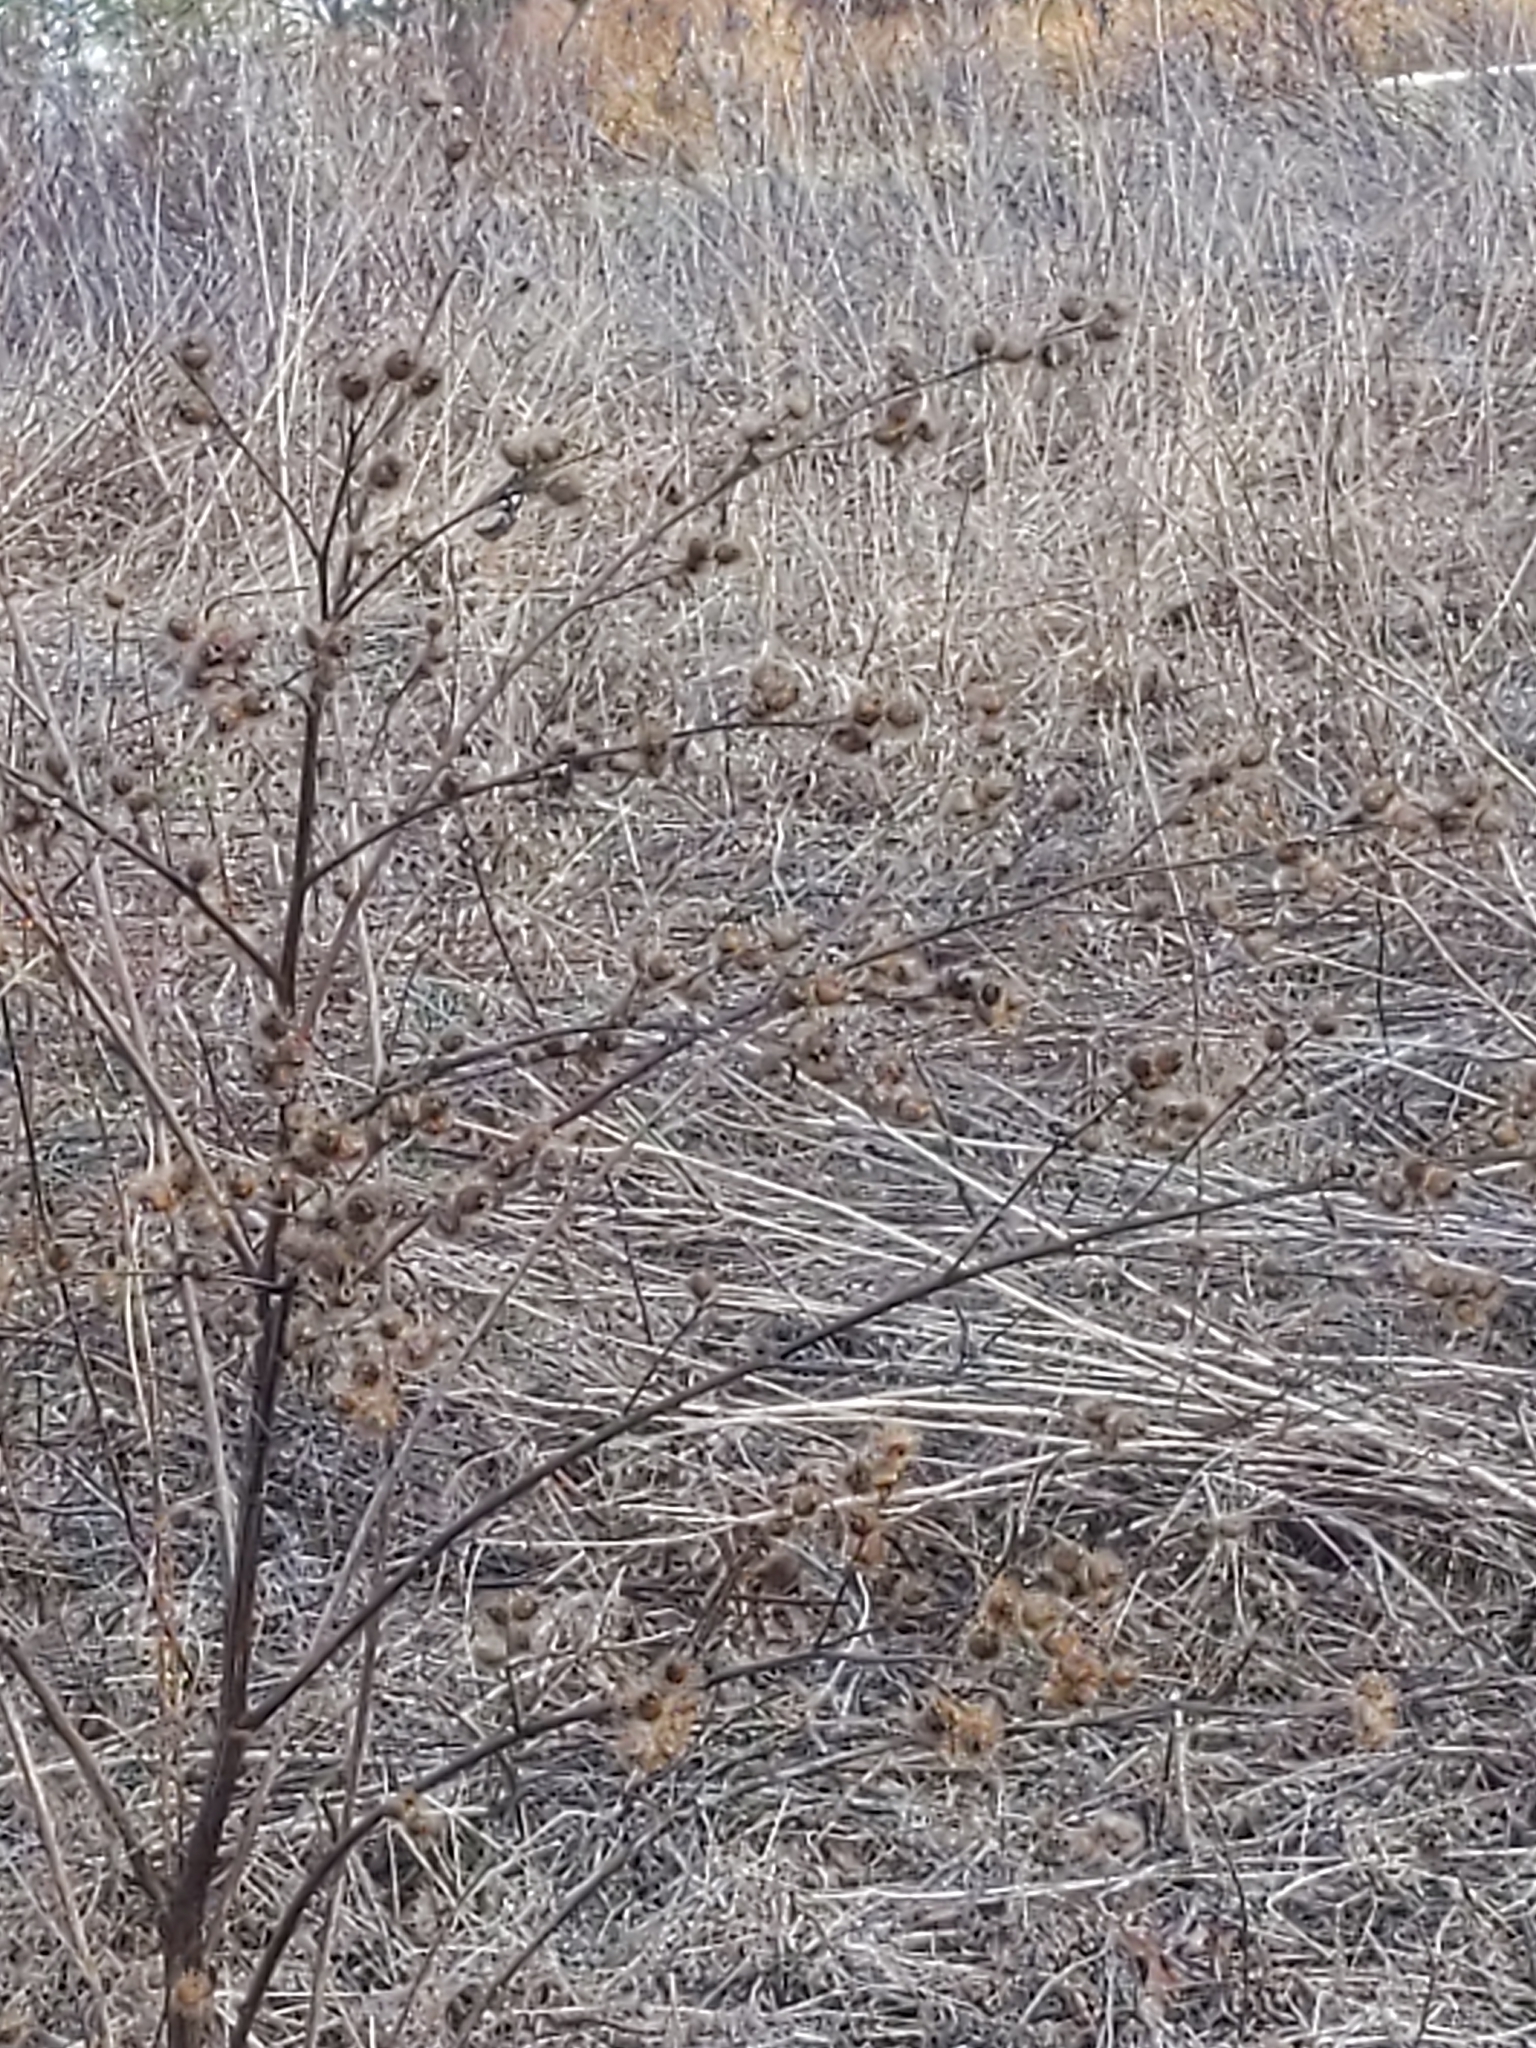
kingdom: Plantae
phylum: Tracheophyta
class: Magnoliopsida
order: Asterales
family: Asteraceae
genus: Arctium
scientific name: Arctium minus
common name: Lesser burdock
